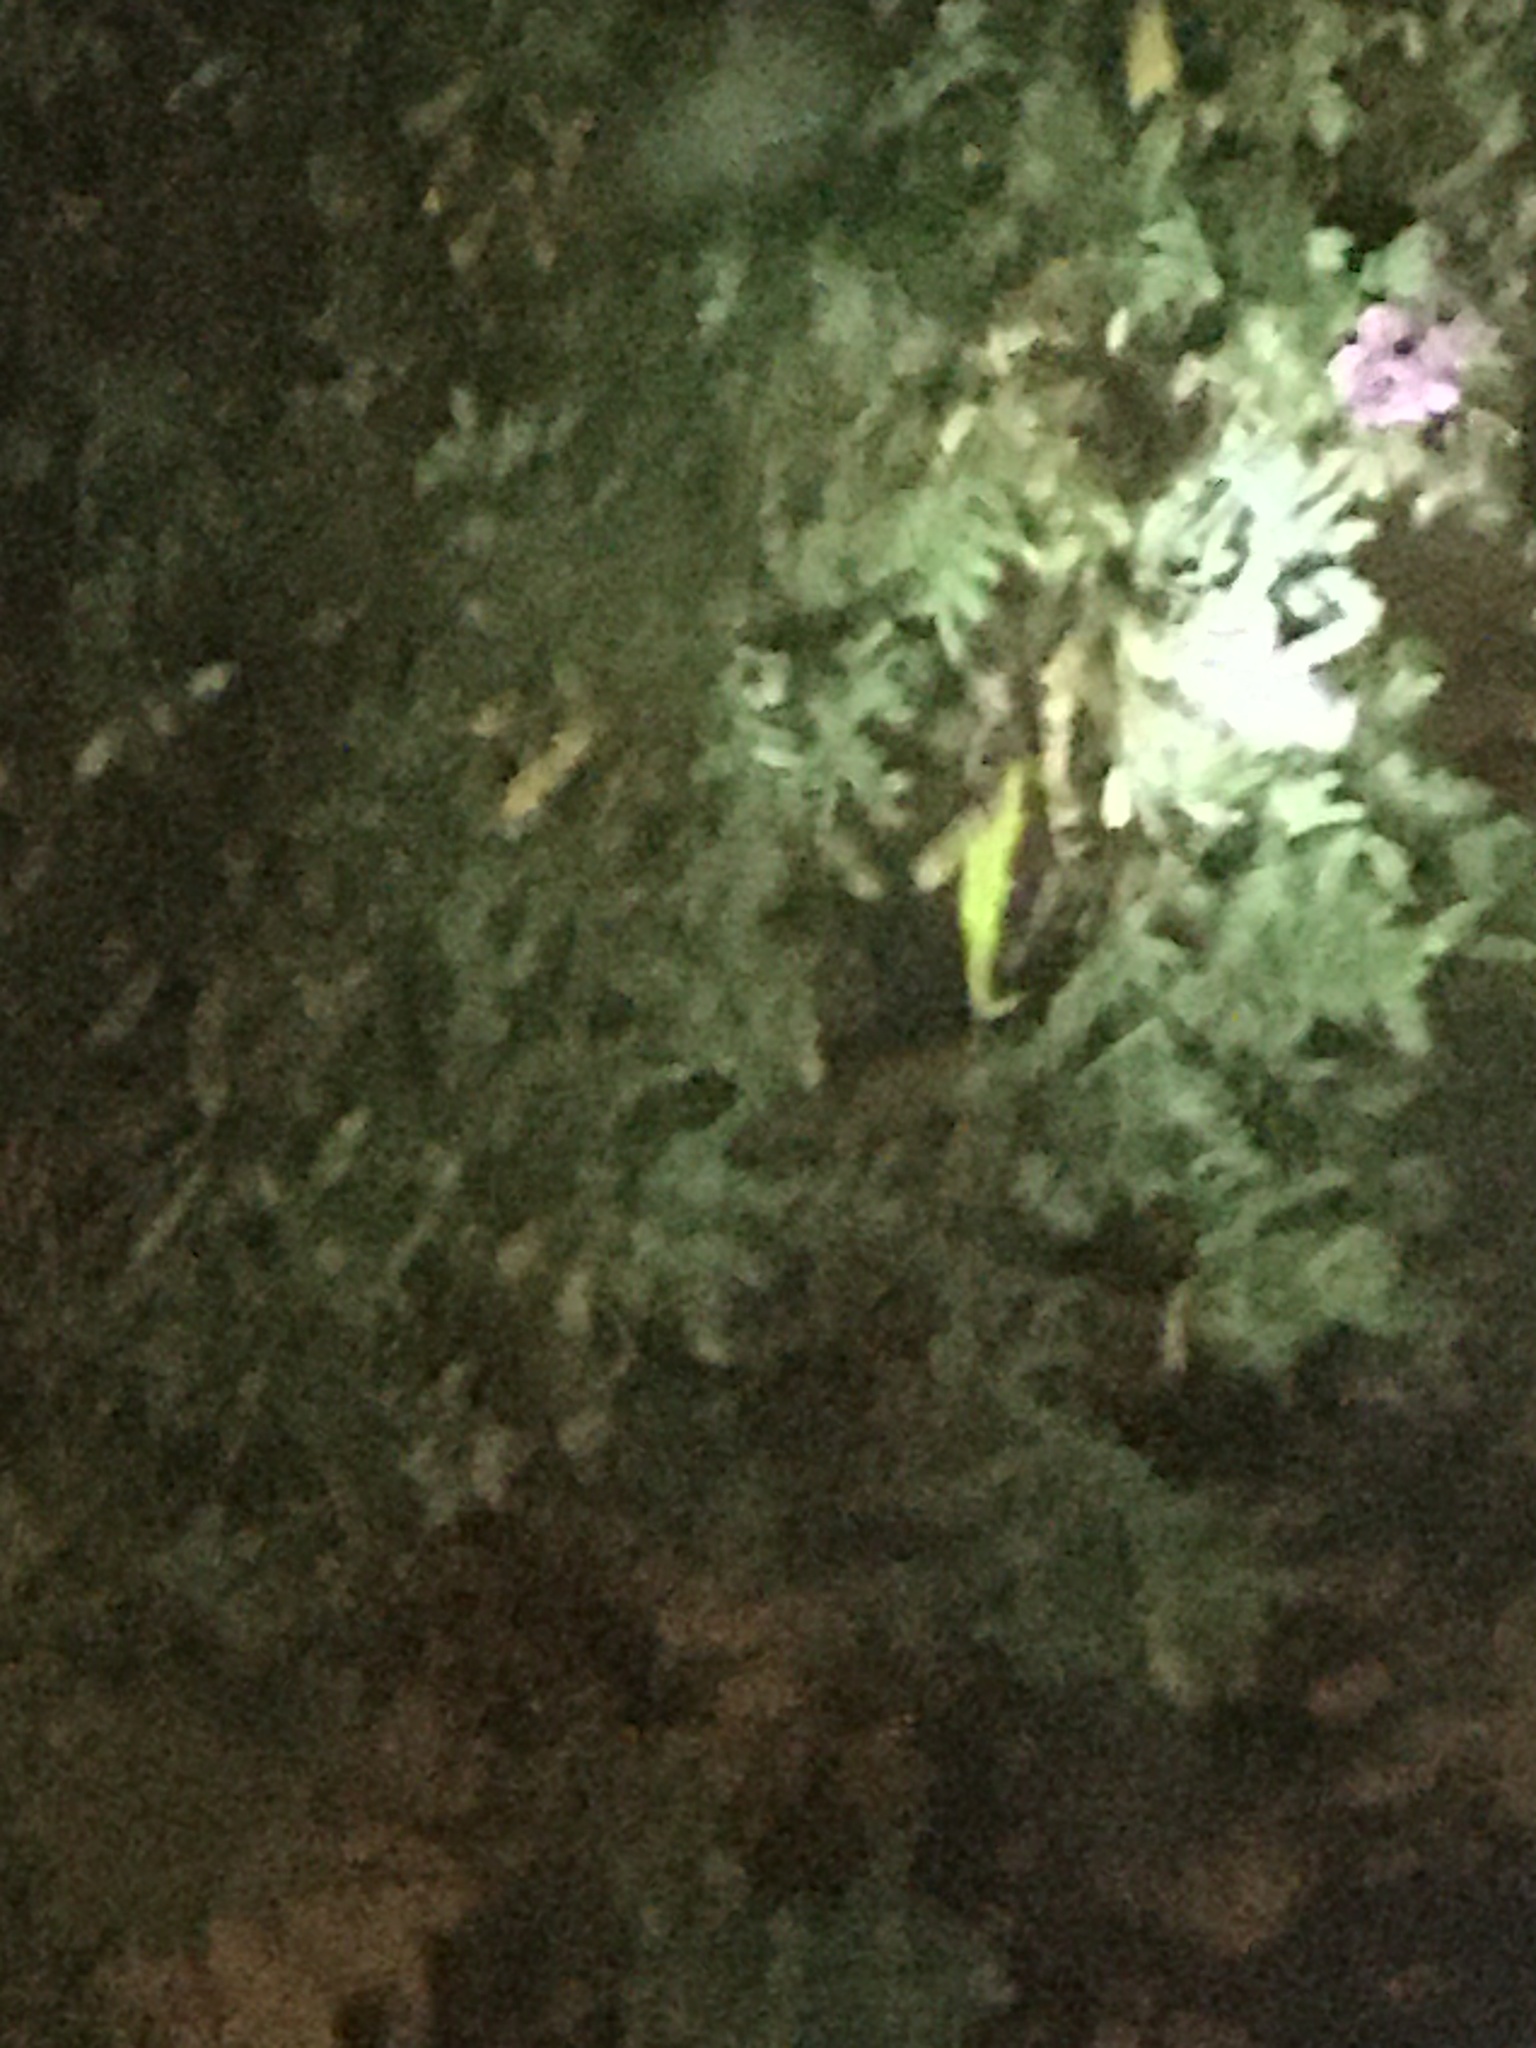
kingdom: Animalia
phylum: Chordata
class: Squamata
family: Chamaeleonidae
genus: Bradypodion
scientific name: Bradypodion pumilum
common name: Cape dwarf chameleon
